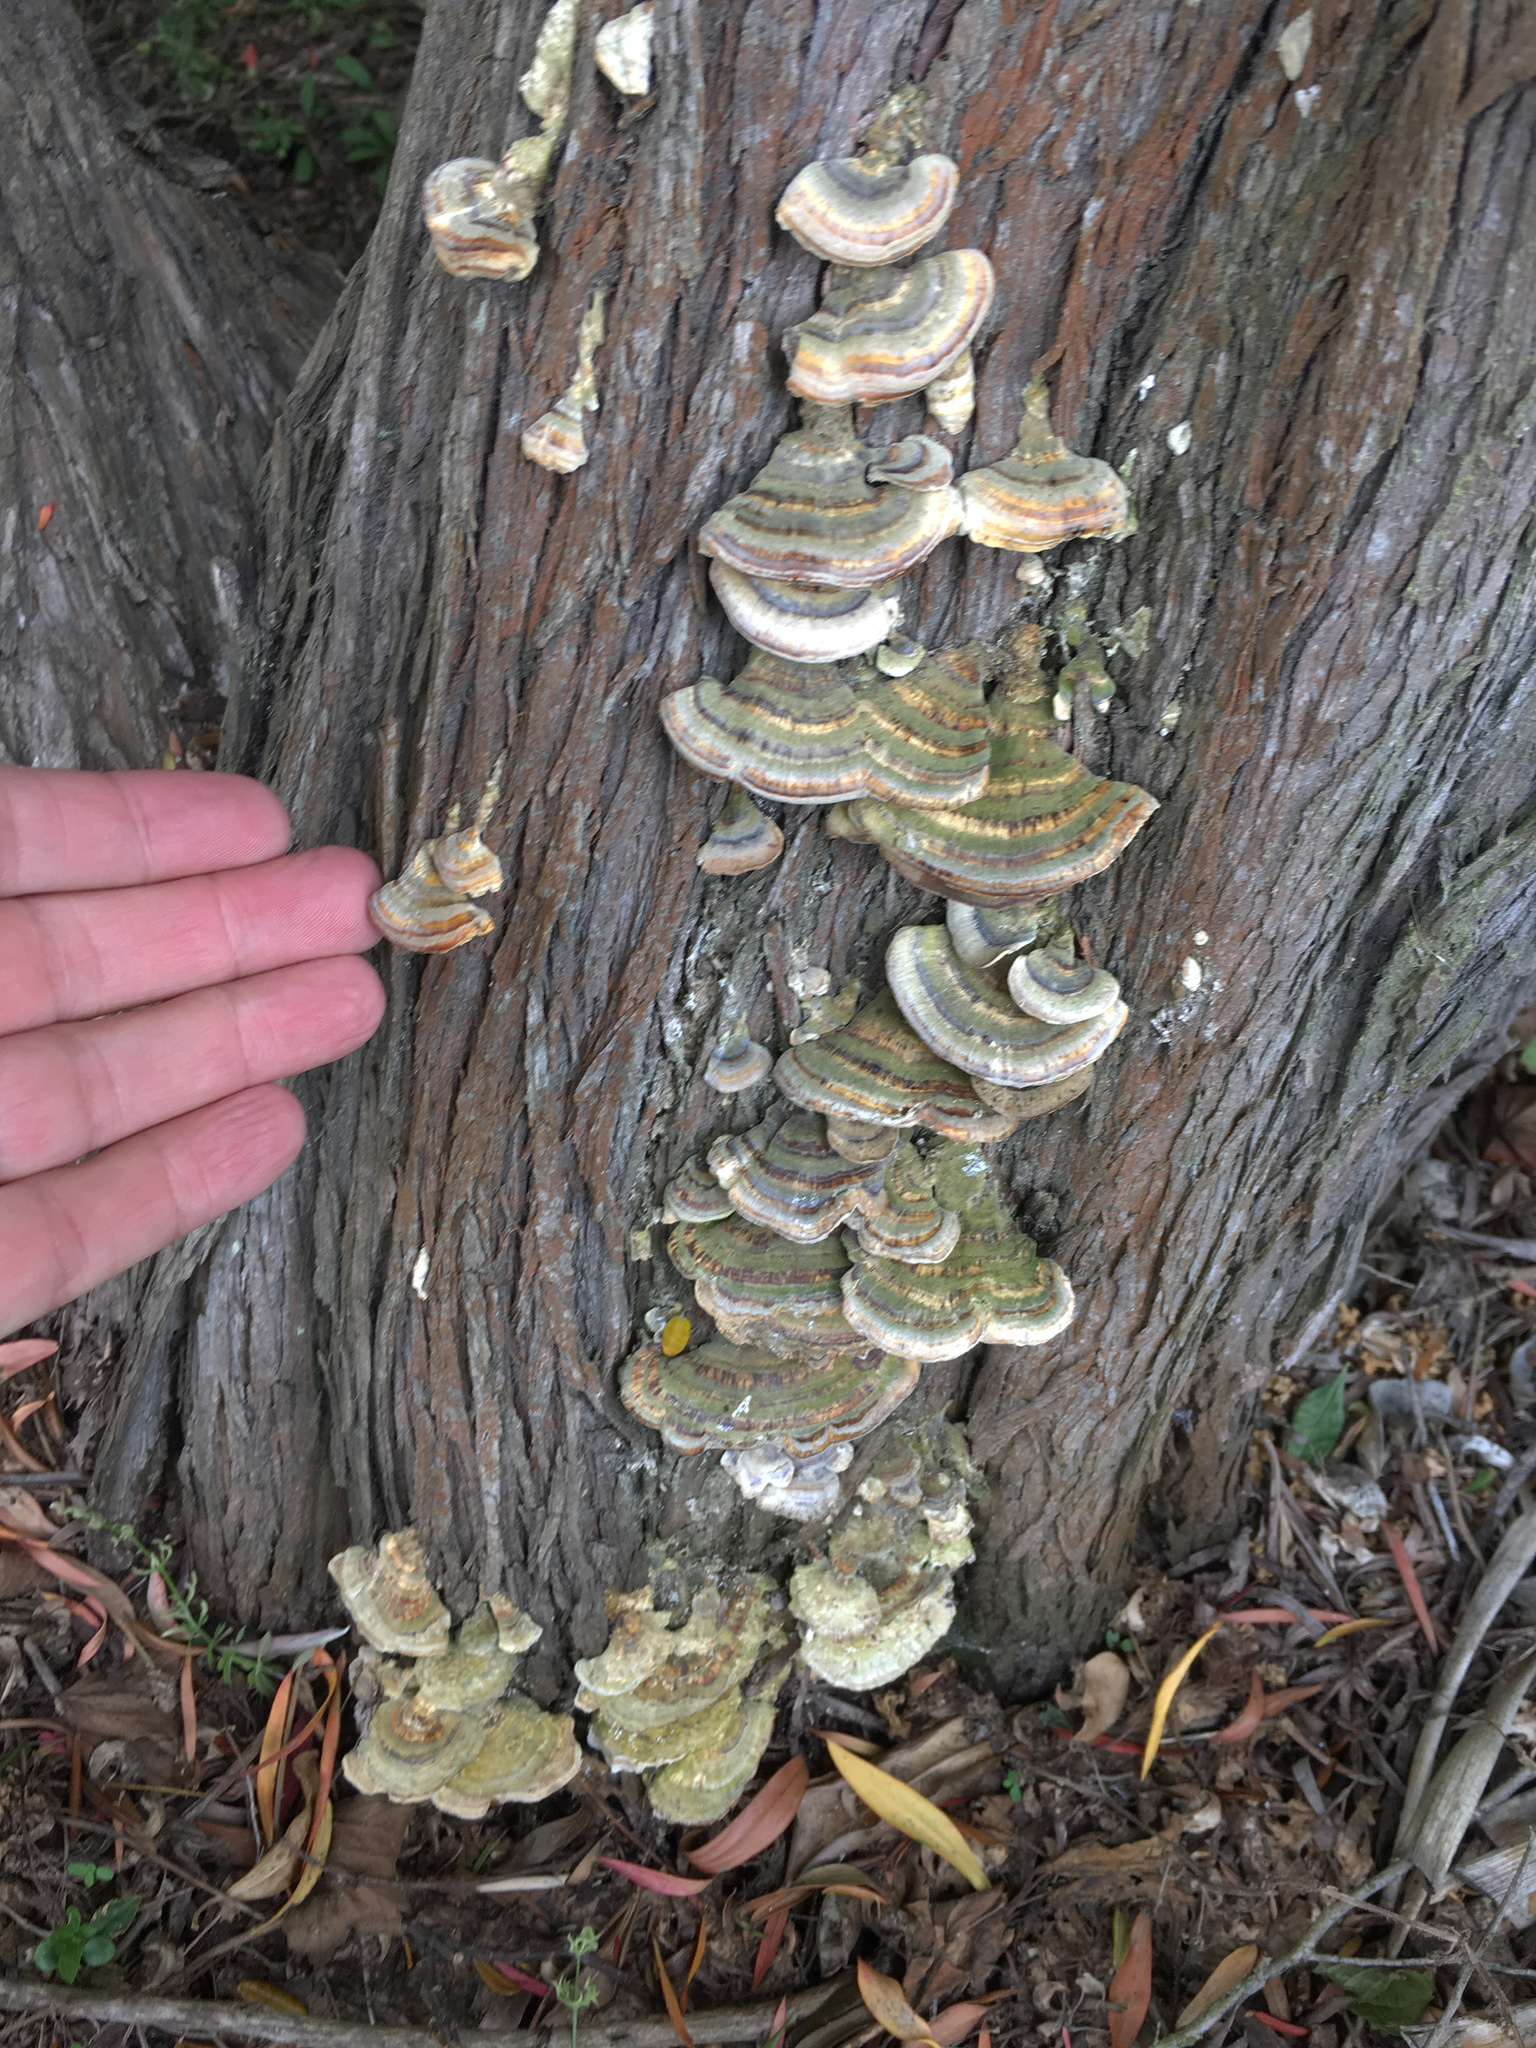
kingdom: Fungi
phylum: Basidiomycota
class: Agaricomycetes
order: Polyporales
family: Polyporaceae
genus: Trametes
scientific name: Trametes versicolor
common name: Turkeytail
